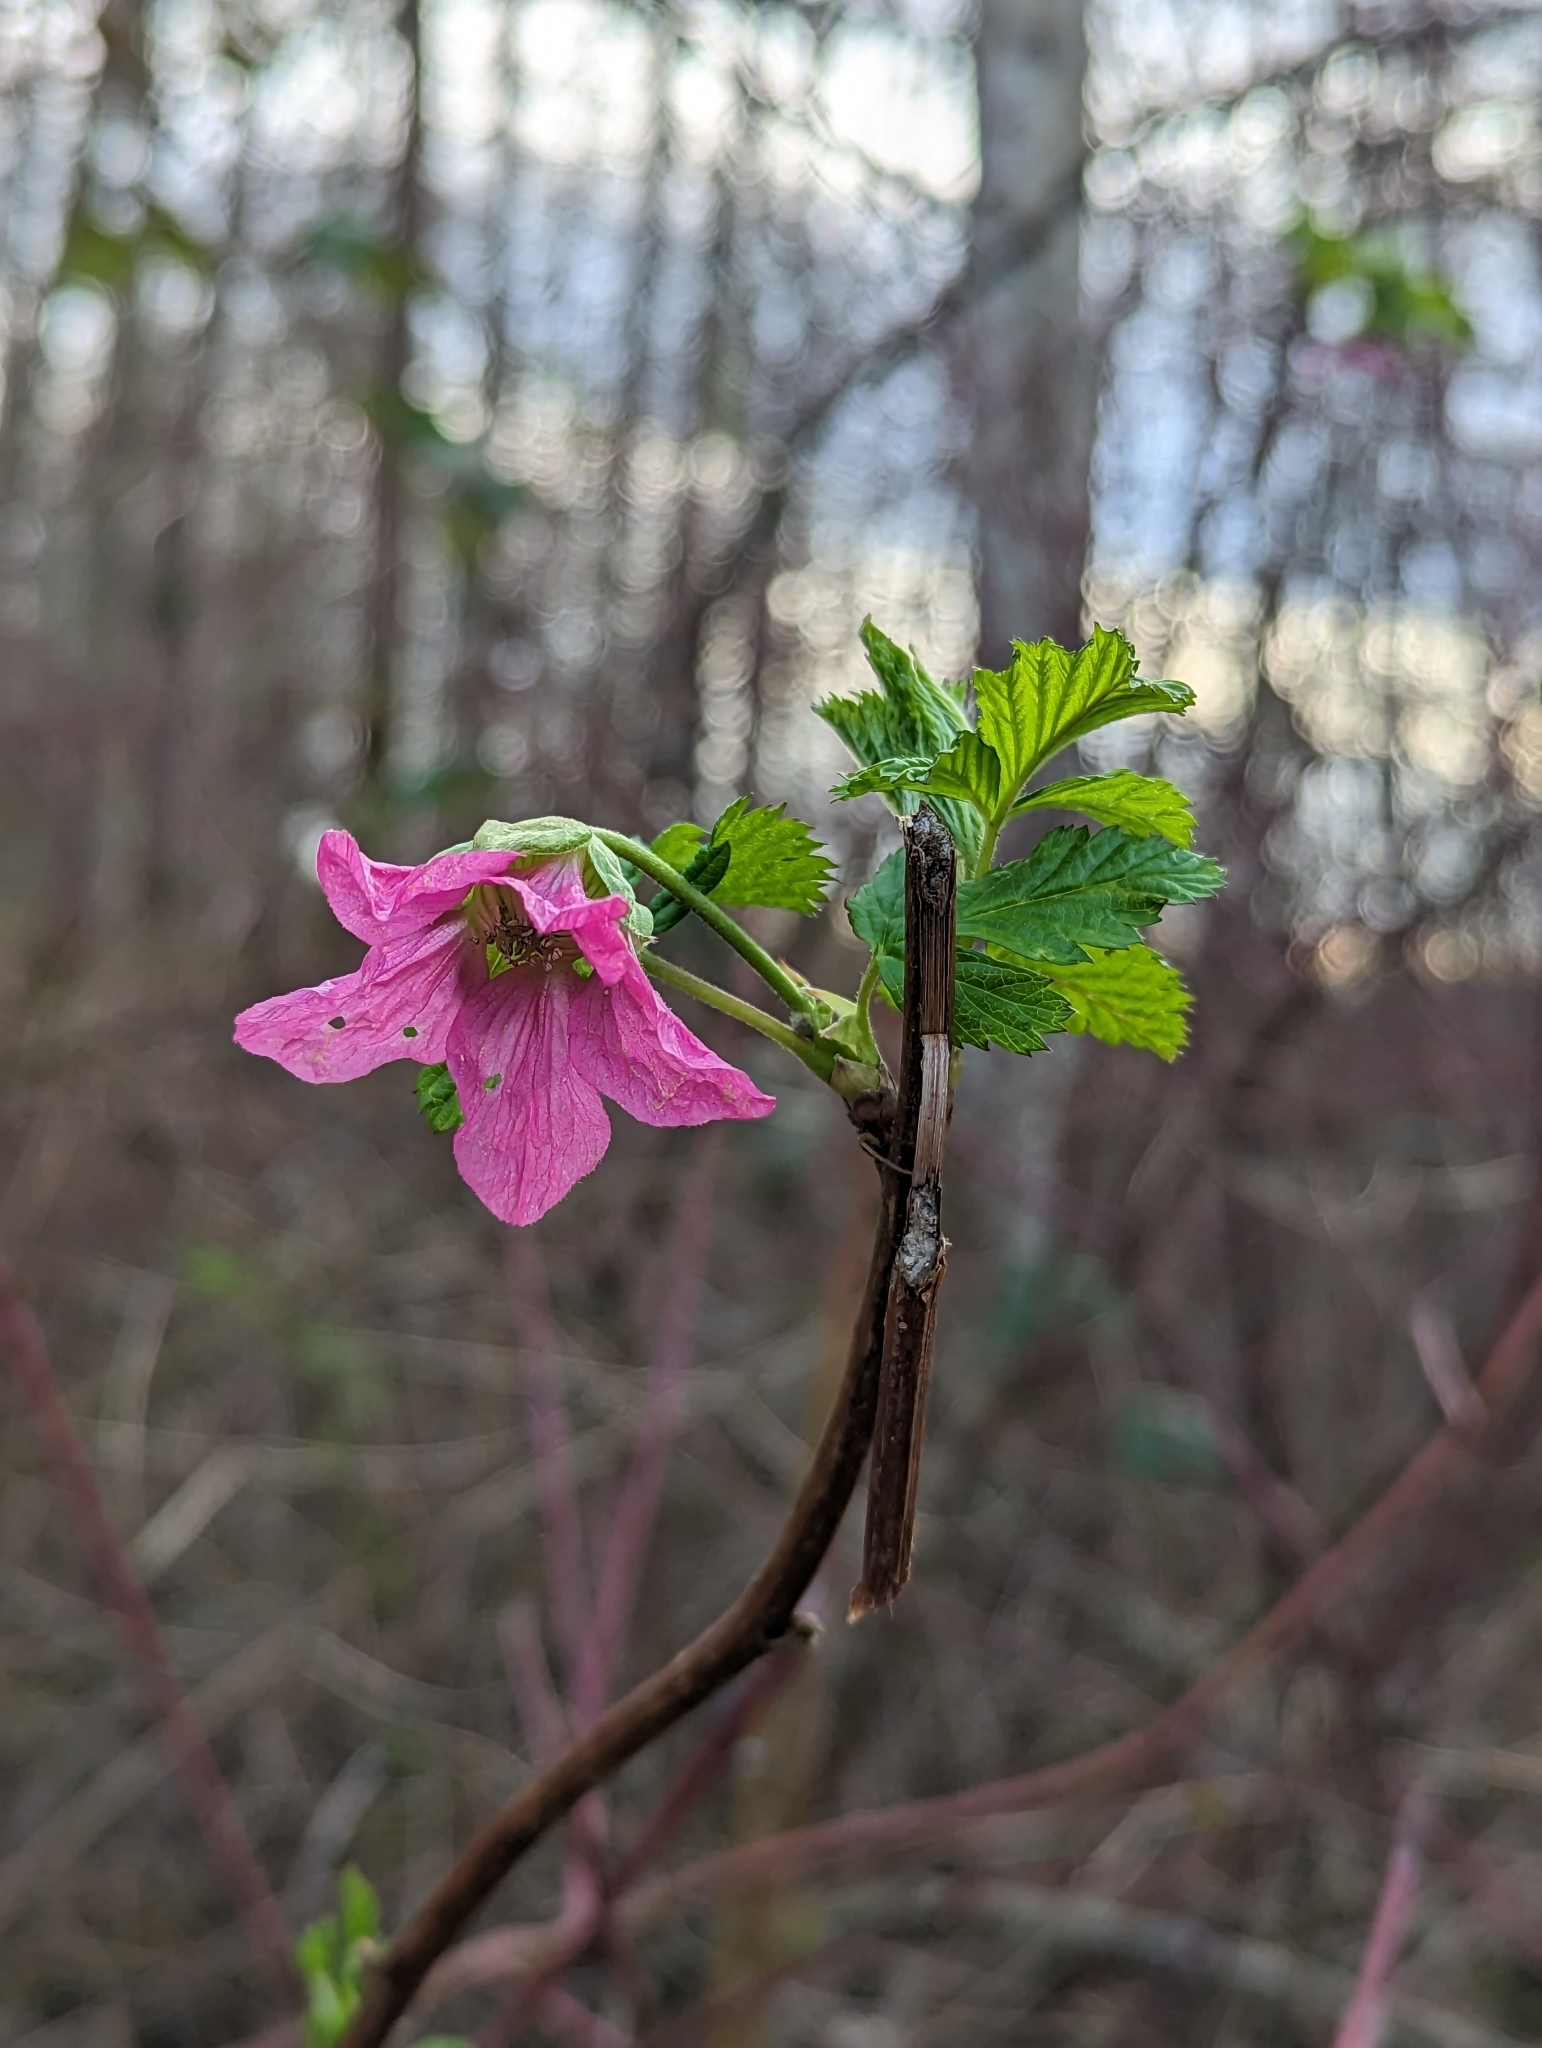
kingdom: Plantae
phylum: Tracheophyta
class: Magnoliopsida
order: Rosales
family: Rosaceae
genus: Rubus
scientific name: Rubus spectabilis
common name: Salmonberry
